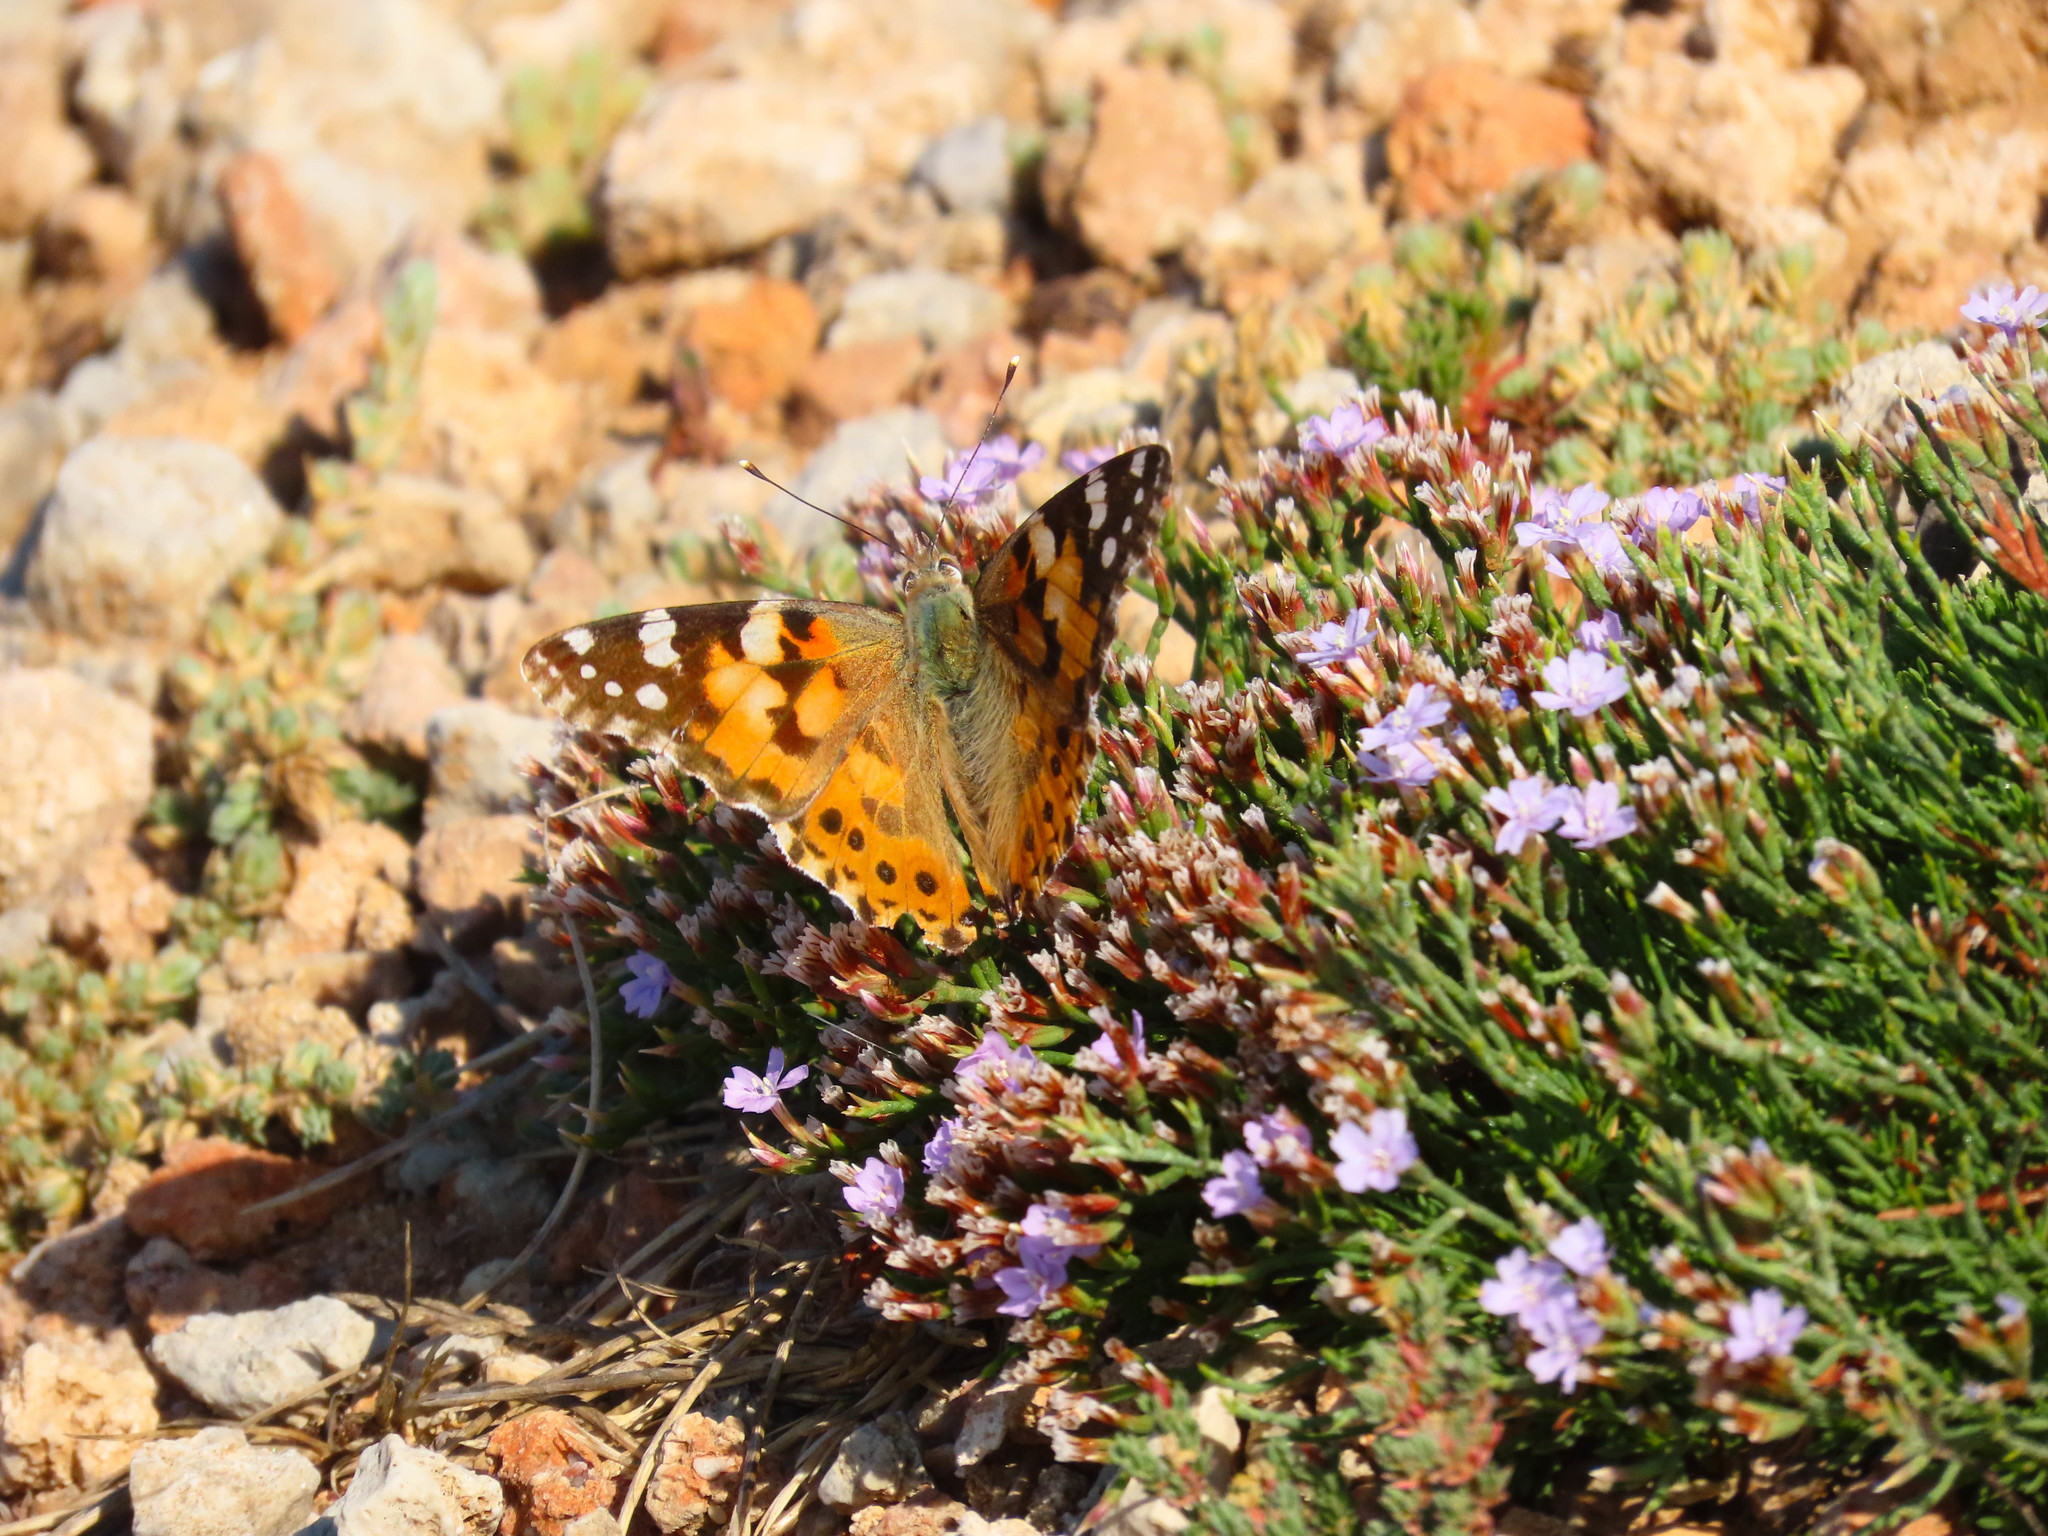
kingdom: Animalia
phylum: Arthropoda
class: Insecta
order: Lepidoptera
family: Nymphalidae
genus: Vanessa
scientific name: Vanessa cardui
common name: Painted lady
